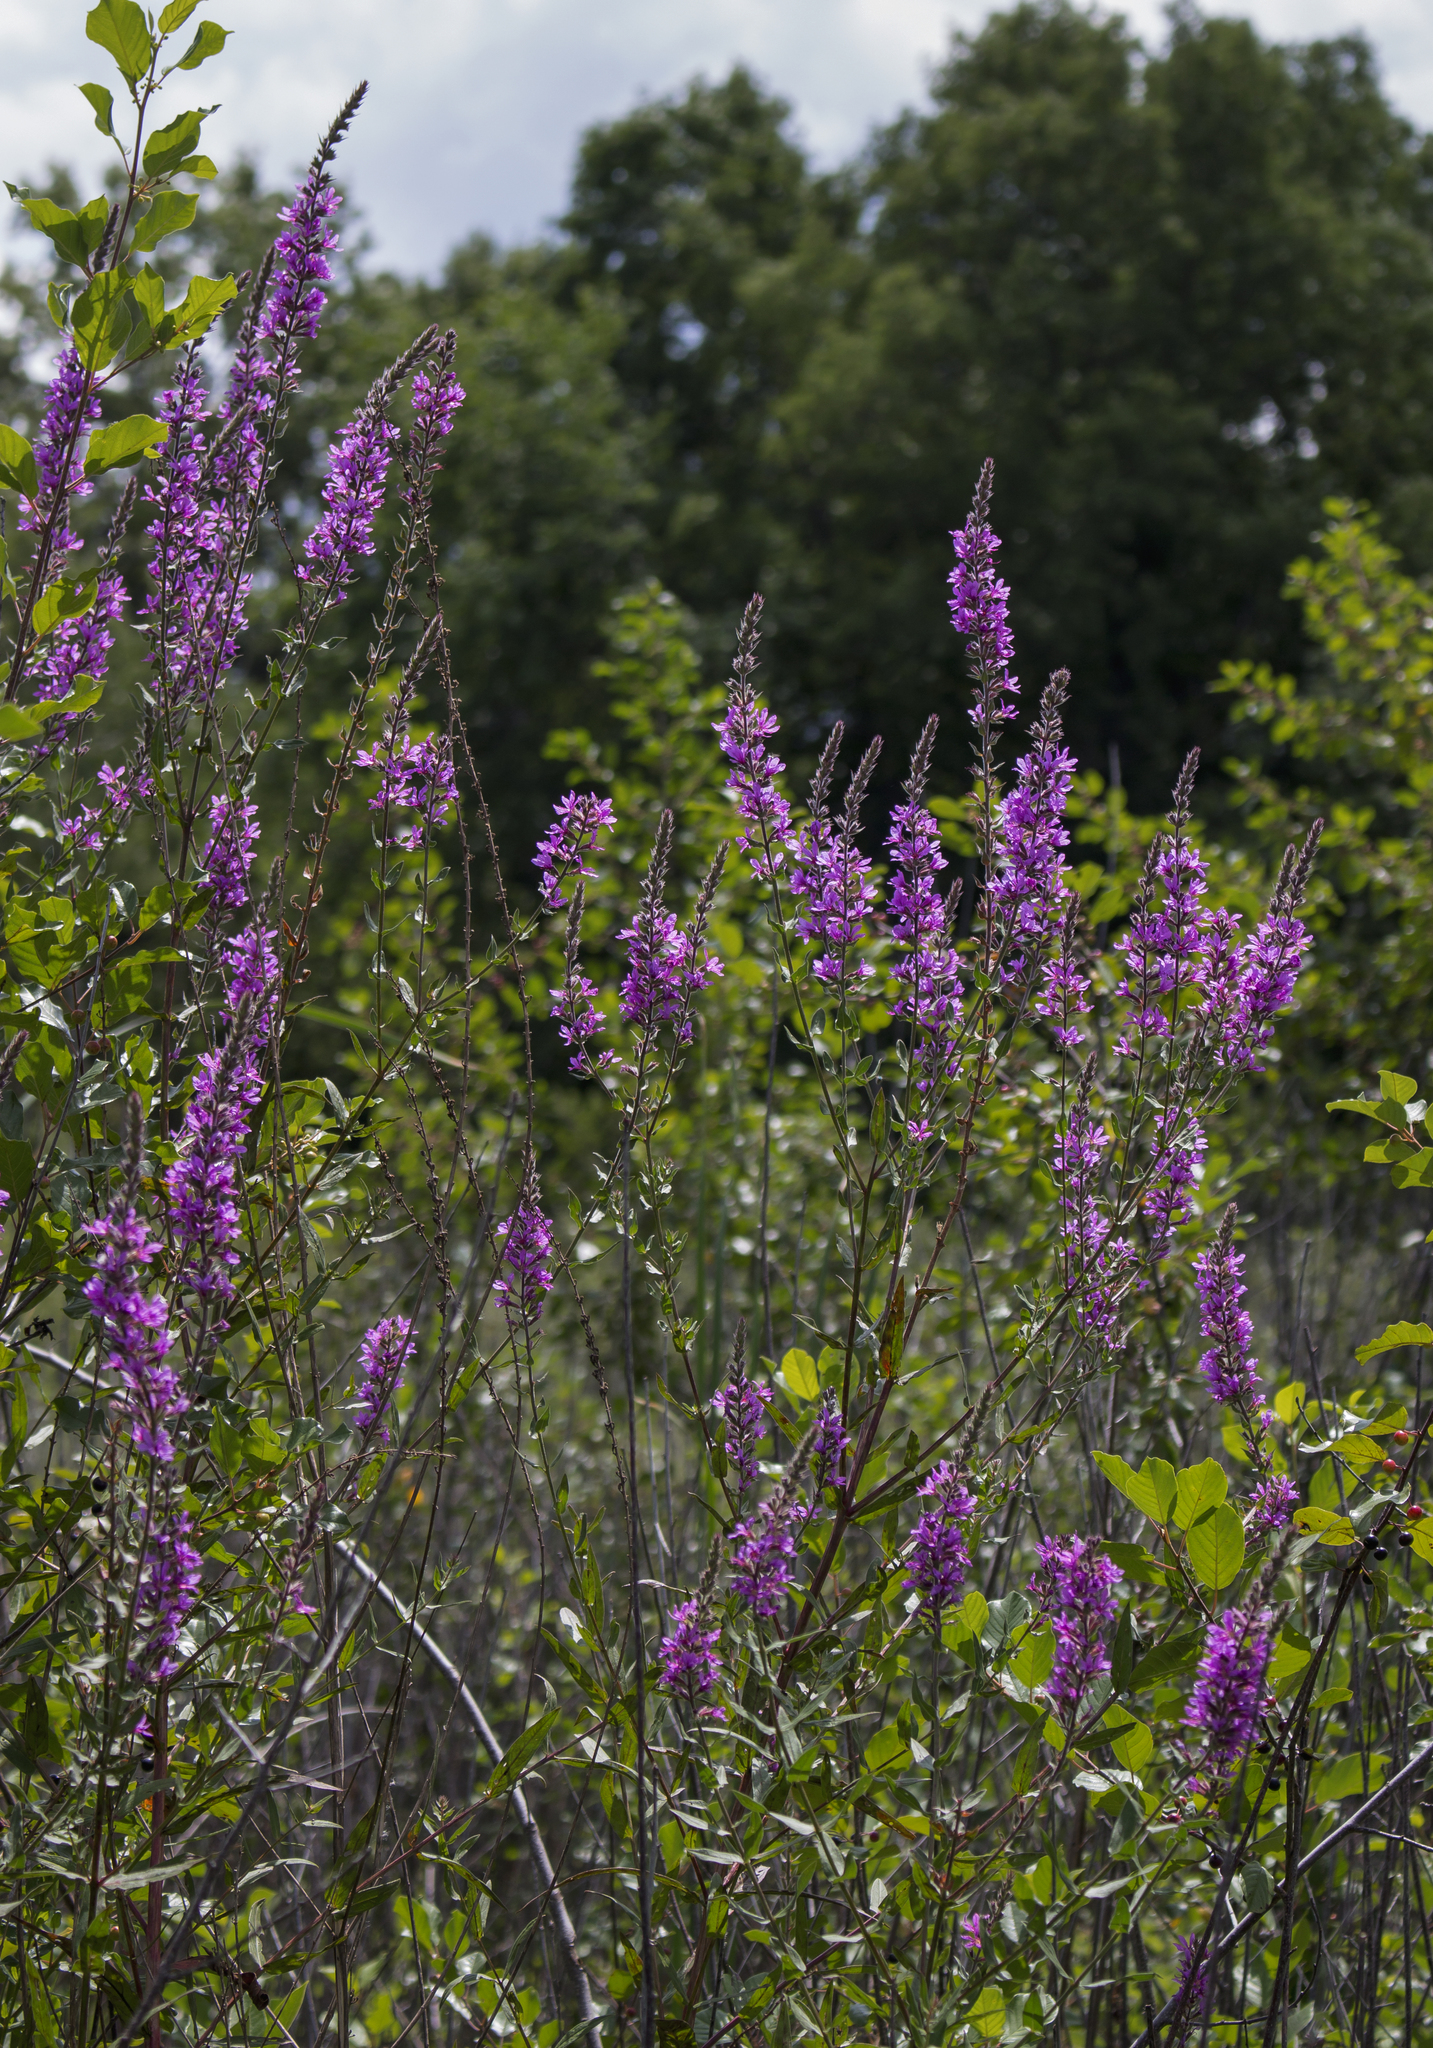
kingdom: Plantae
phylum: Tracheophyta
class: Magnoliopsida
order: Myrtales
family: Lythraceae
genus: Lythrum
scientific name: Lythrum salicaria
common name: Purple loosestrife
